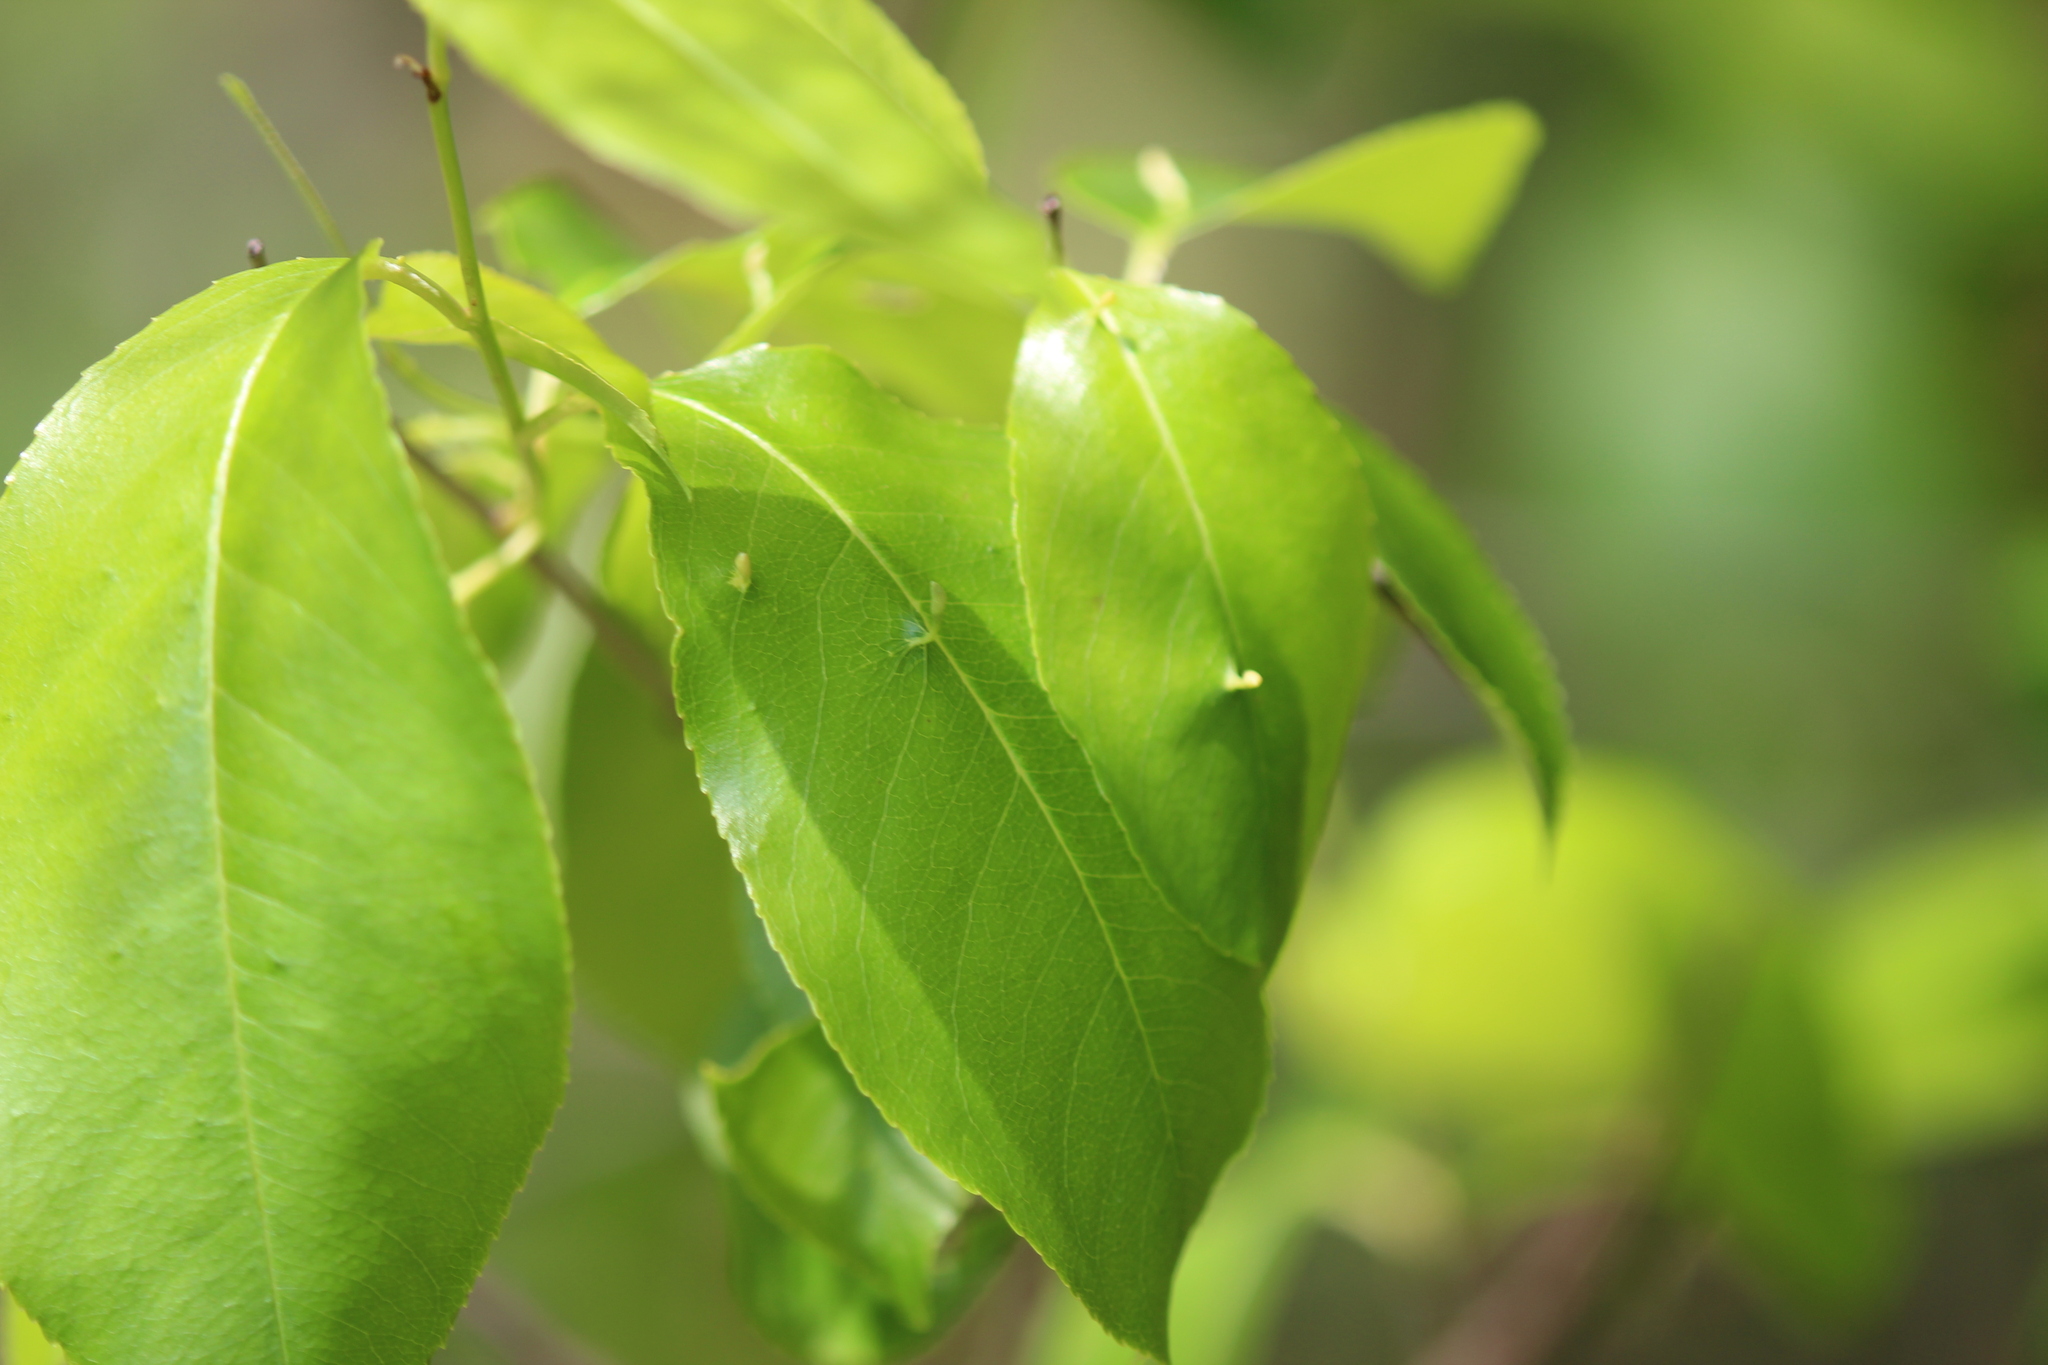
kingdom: Animalia
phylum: Arthropoda
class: Arachnida
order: Trombidiformes
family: Eriophyidae
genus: Eriophyes
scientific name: Eriophyes
